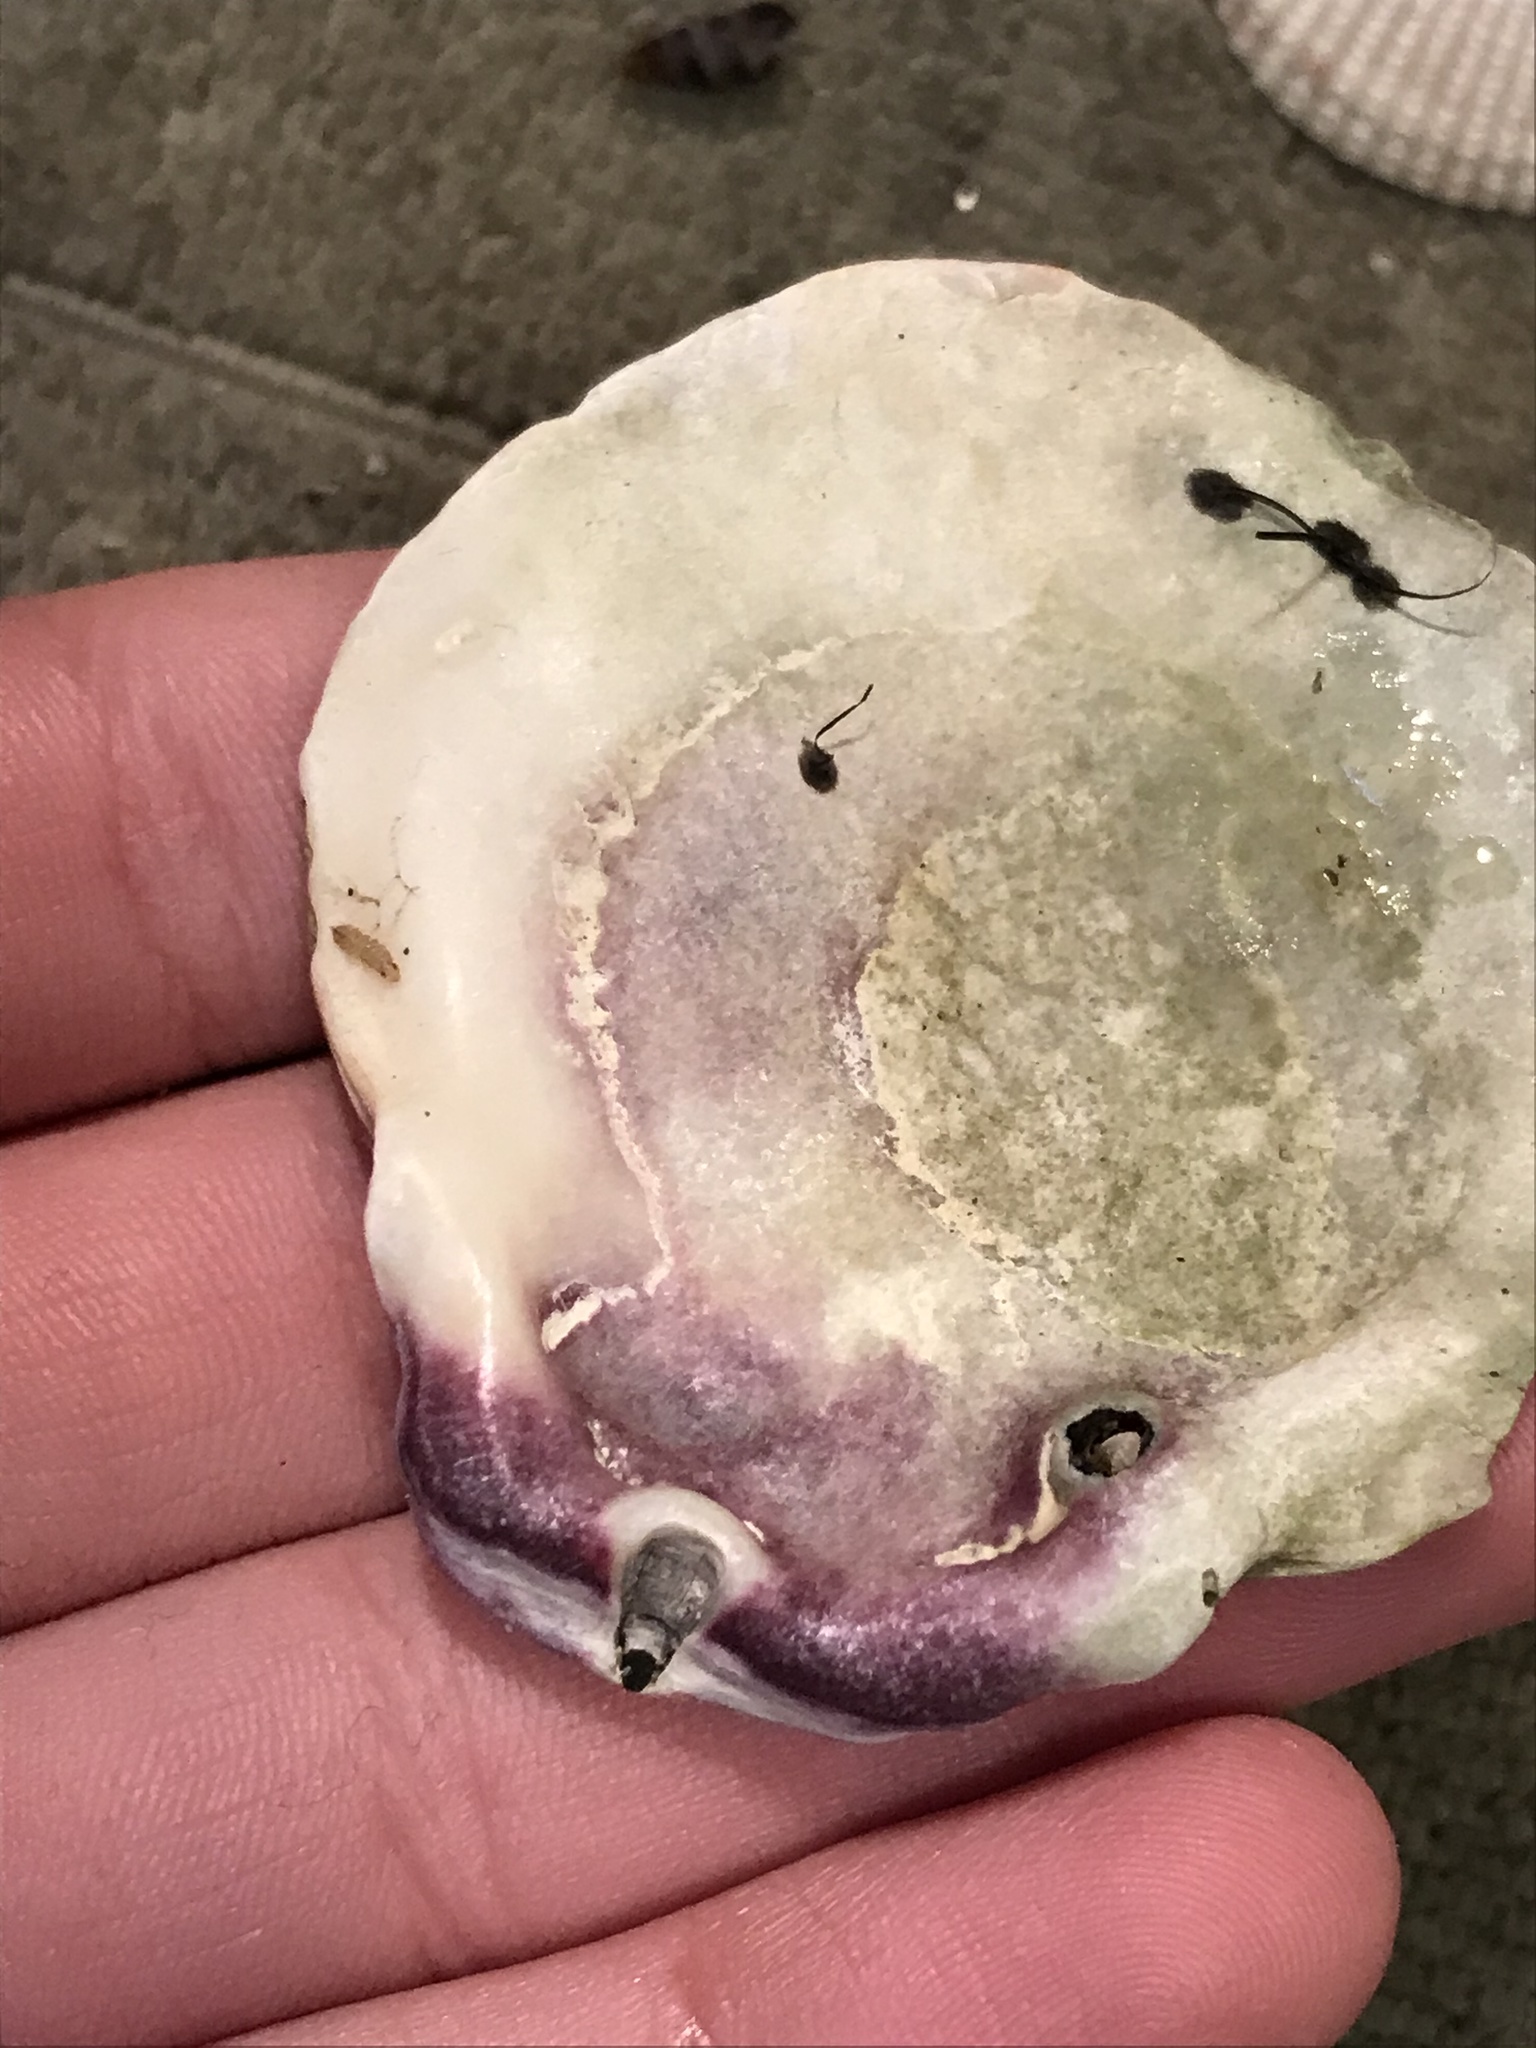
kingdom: Animalia
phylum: Mollusca
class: Bivalvia
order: Pectinida
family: Pectinidae
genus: Crassadoma
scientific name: Crassadoma gigantea
